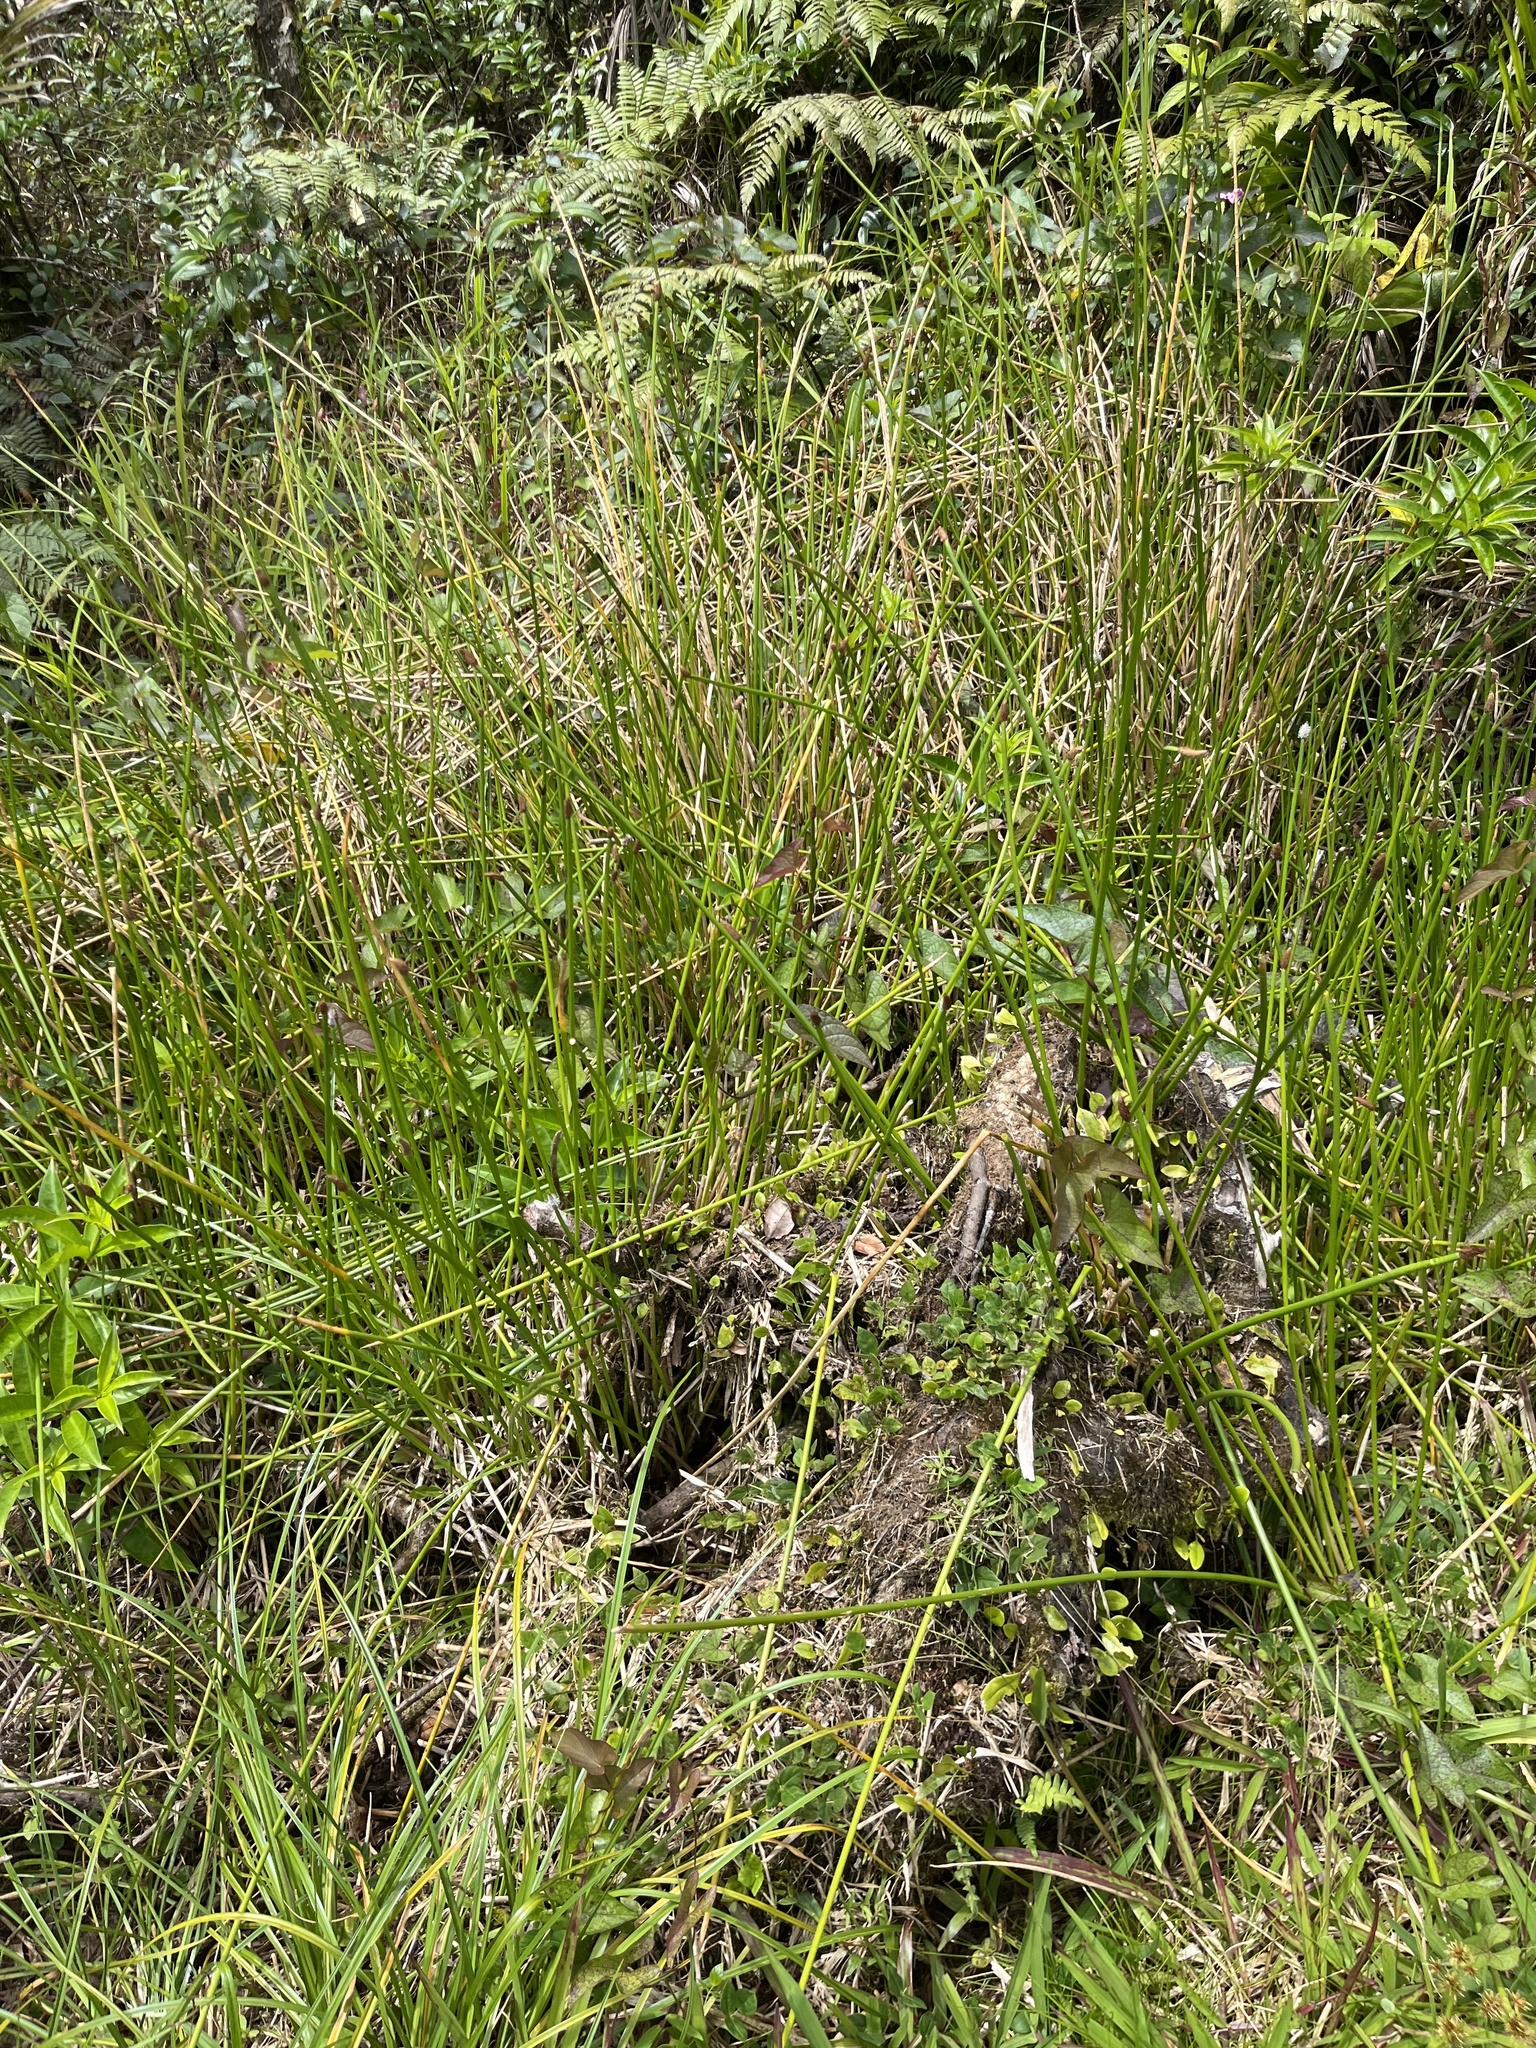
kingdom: Plantae
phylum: Tracheophyta
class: Liliopsida
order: Poales
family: Cyperaceae
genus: Eleocharis
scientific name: Eleocharis elegans
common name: Elegant spike-rush
